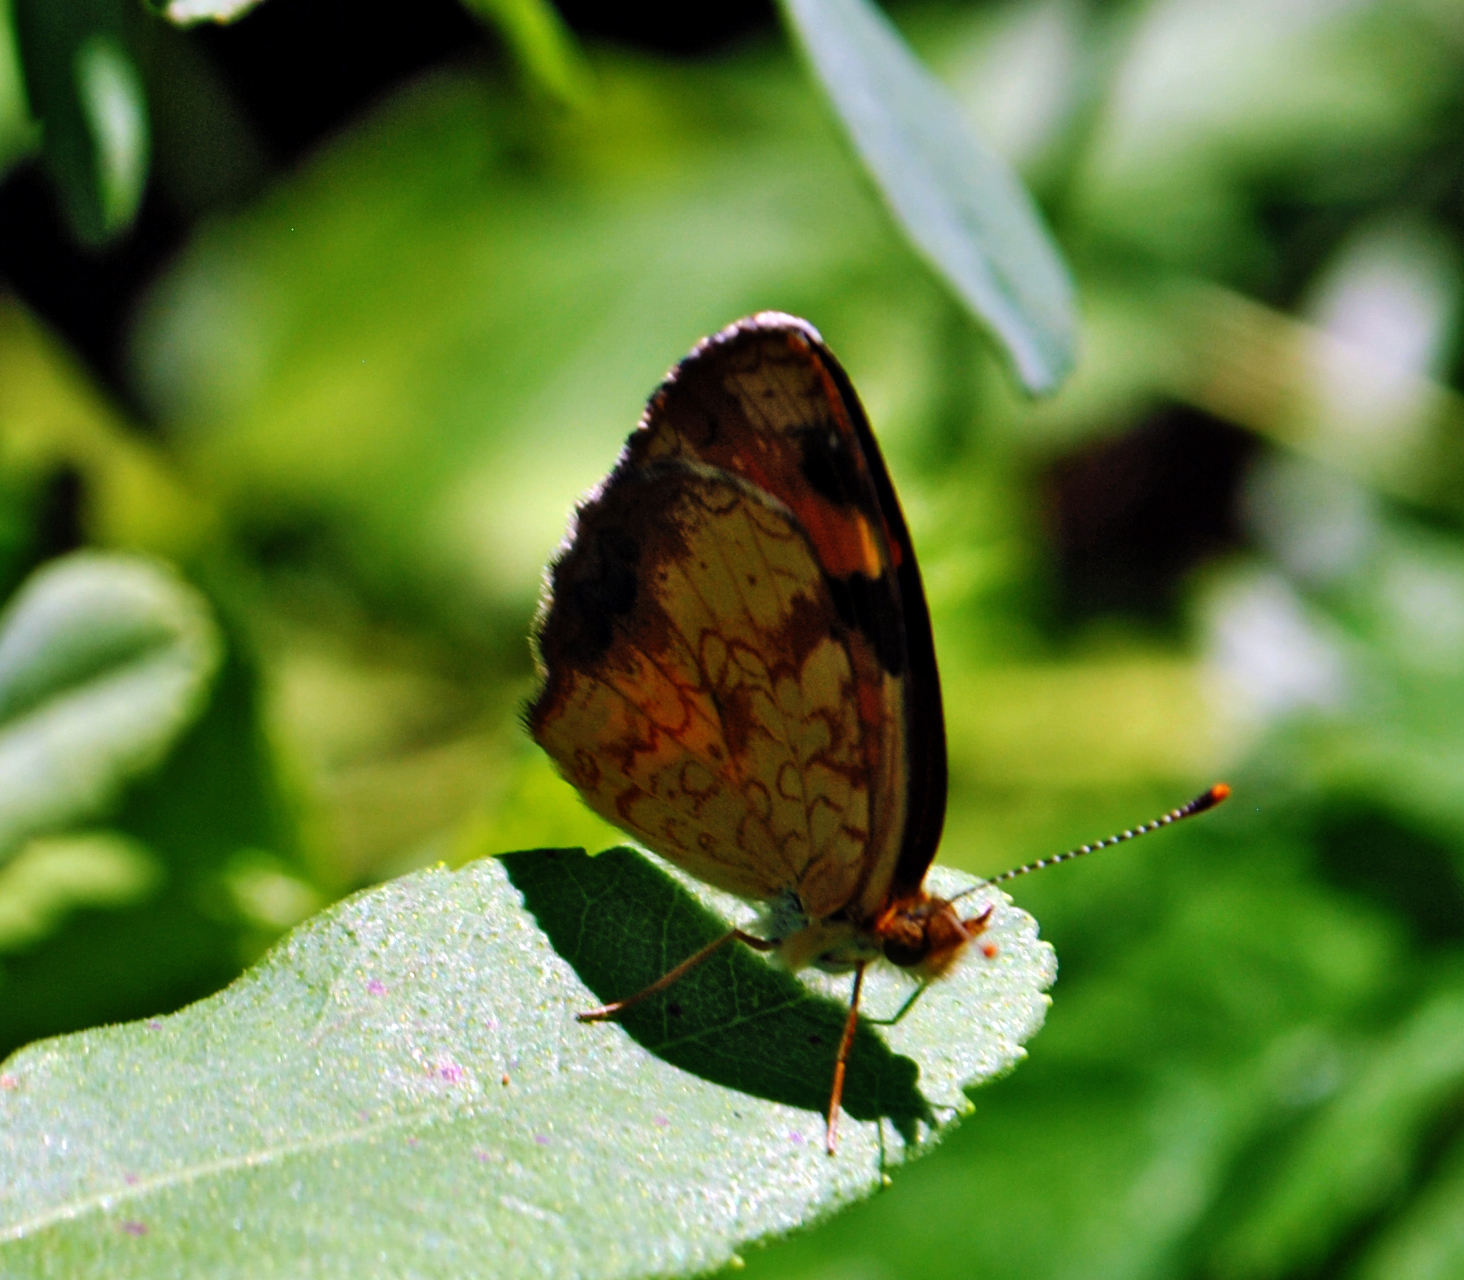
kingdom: Animalia
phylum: Arthropoda
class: Insecta
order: Lepidoptera
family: Nymphalidae
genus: Phyciodes
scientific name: Phyciodes tharos
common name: Pearl crescent
